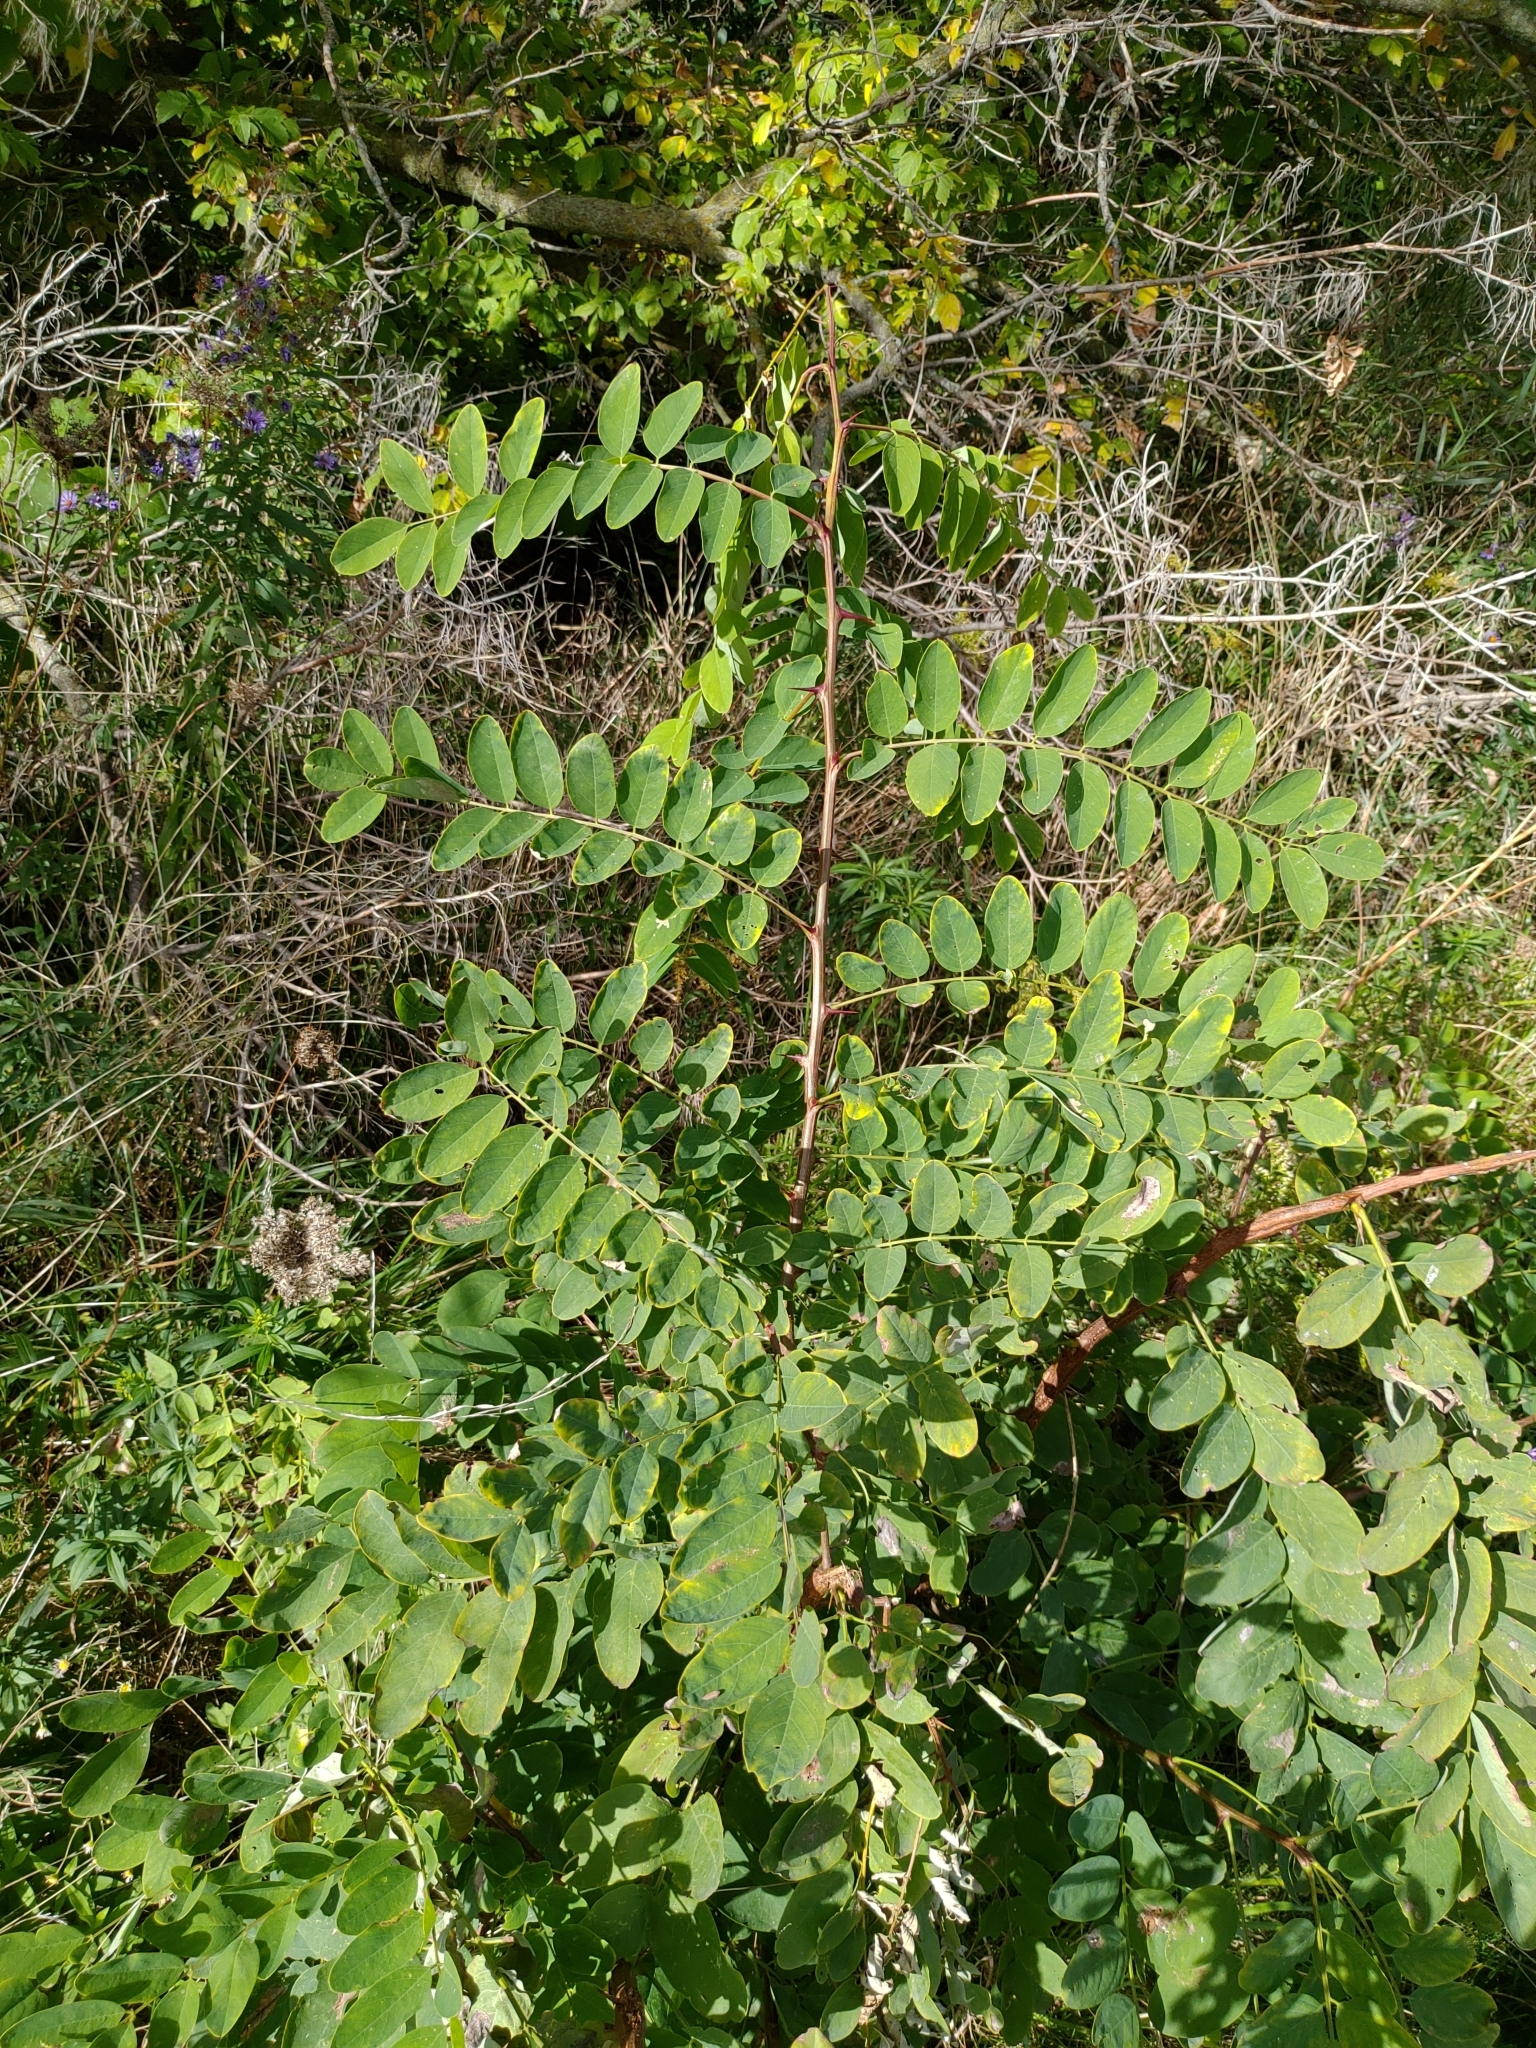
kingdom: Plantae
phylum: Tracheophyta
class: Magnoliopsida
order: Fabales
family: Fabaceae
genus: Robinia
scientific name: Robinia pseudoacacia
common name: Black locust
